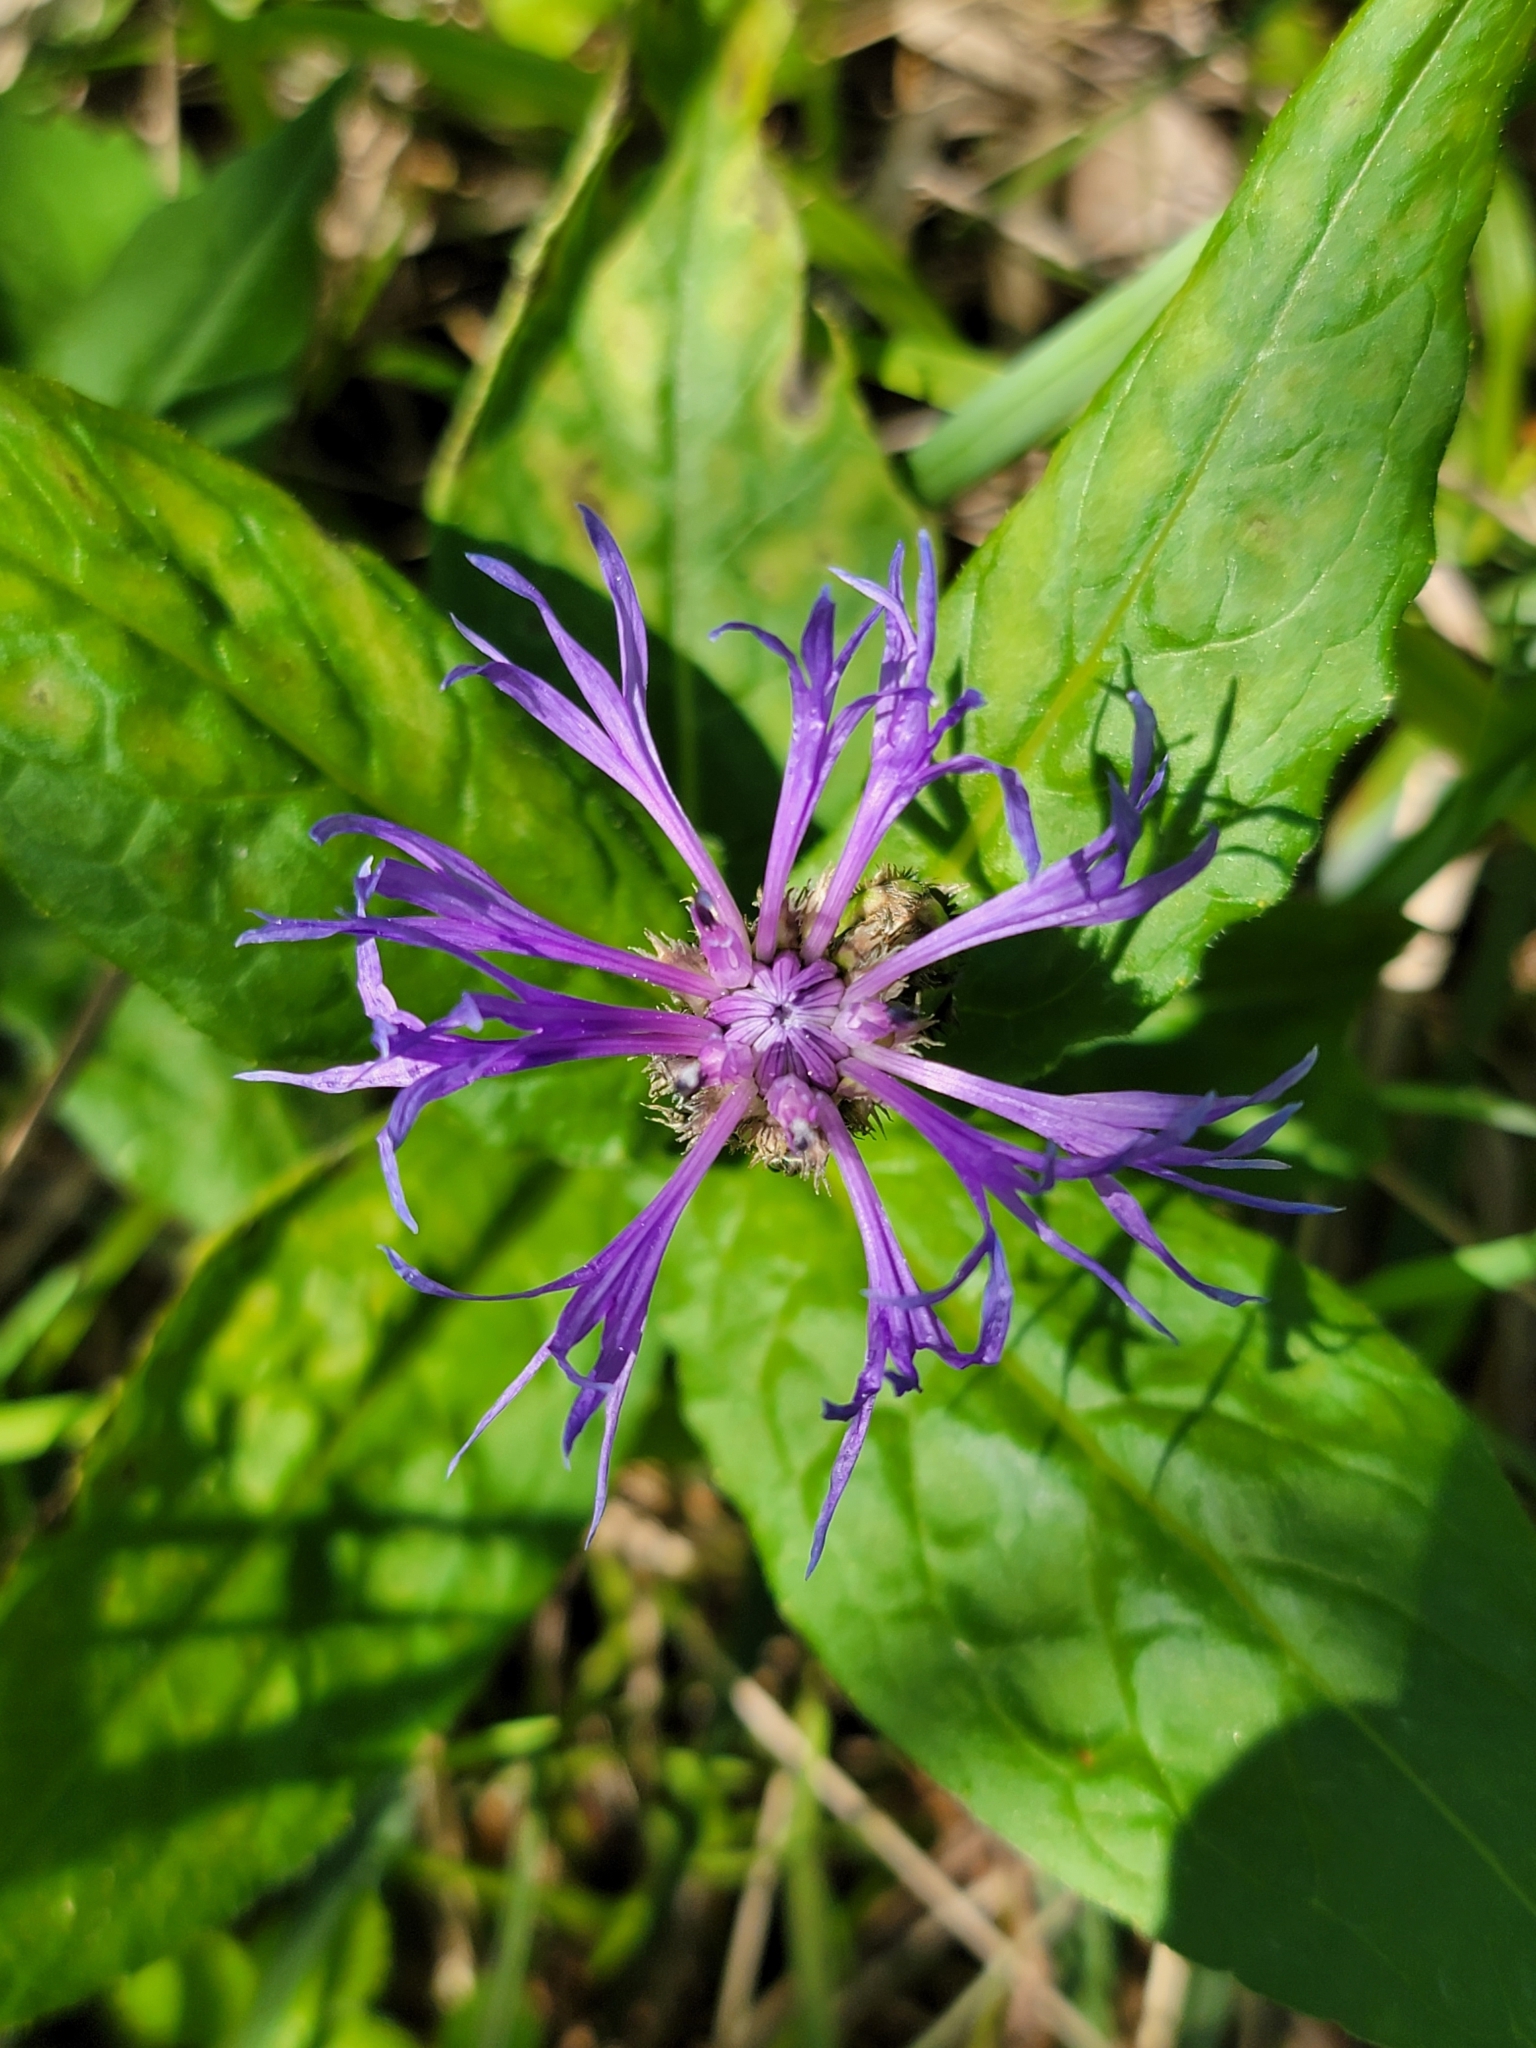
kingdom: Plantae
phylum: Tracheophyta
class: Magnoliopsida
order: Asterales
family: Asteraceae
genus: Centaurea
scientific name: Centaurea montana
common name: Perennial cornflower
